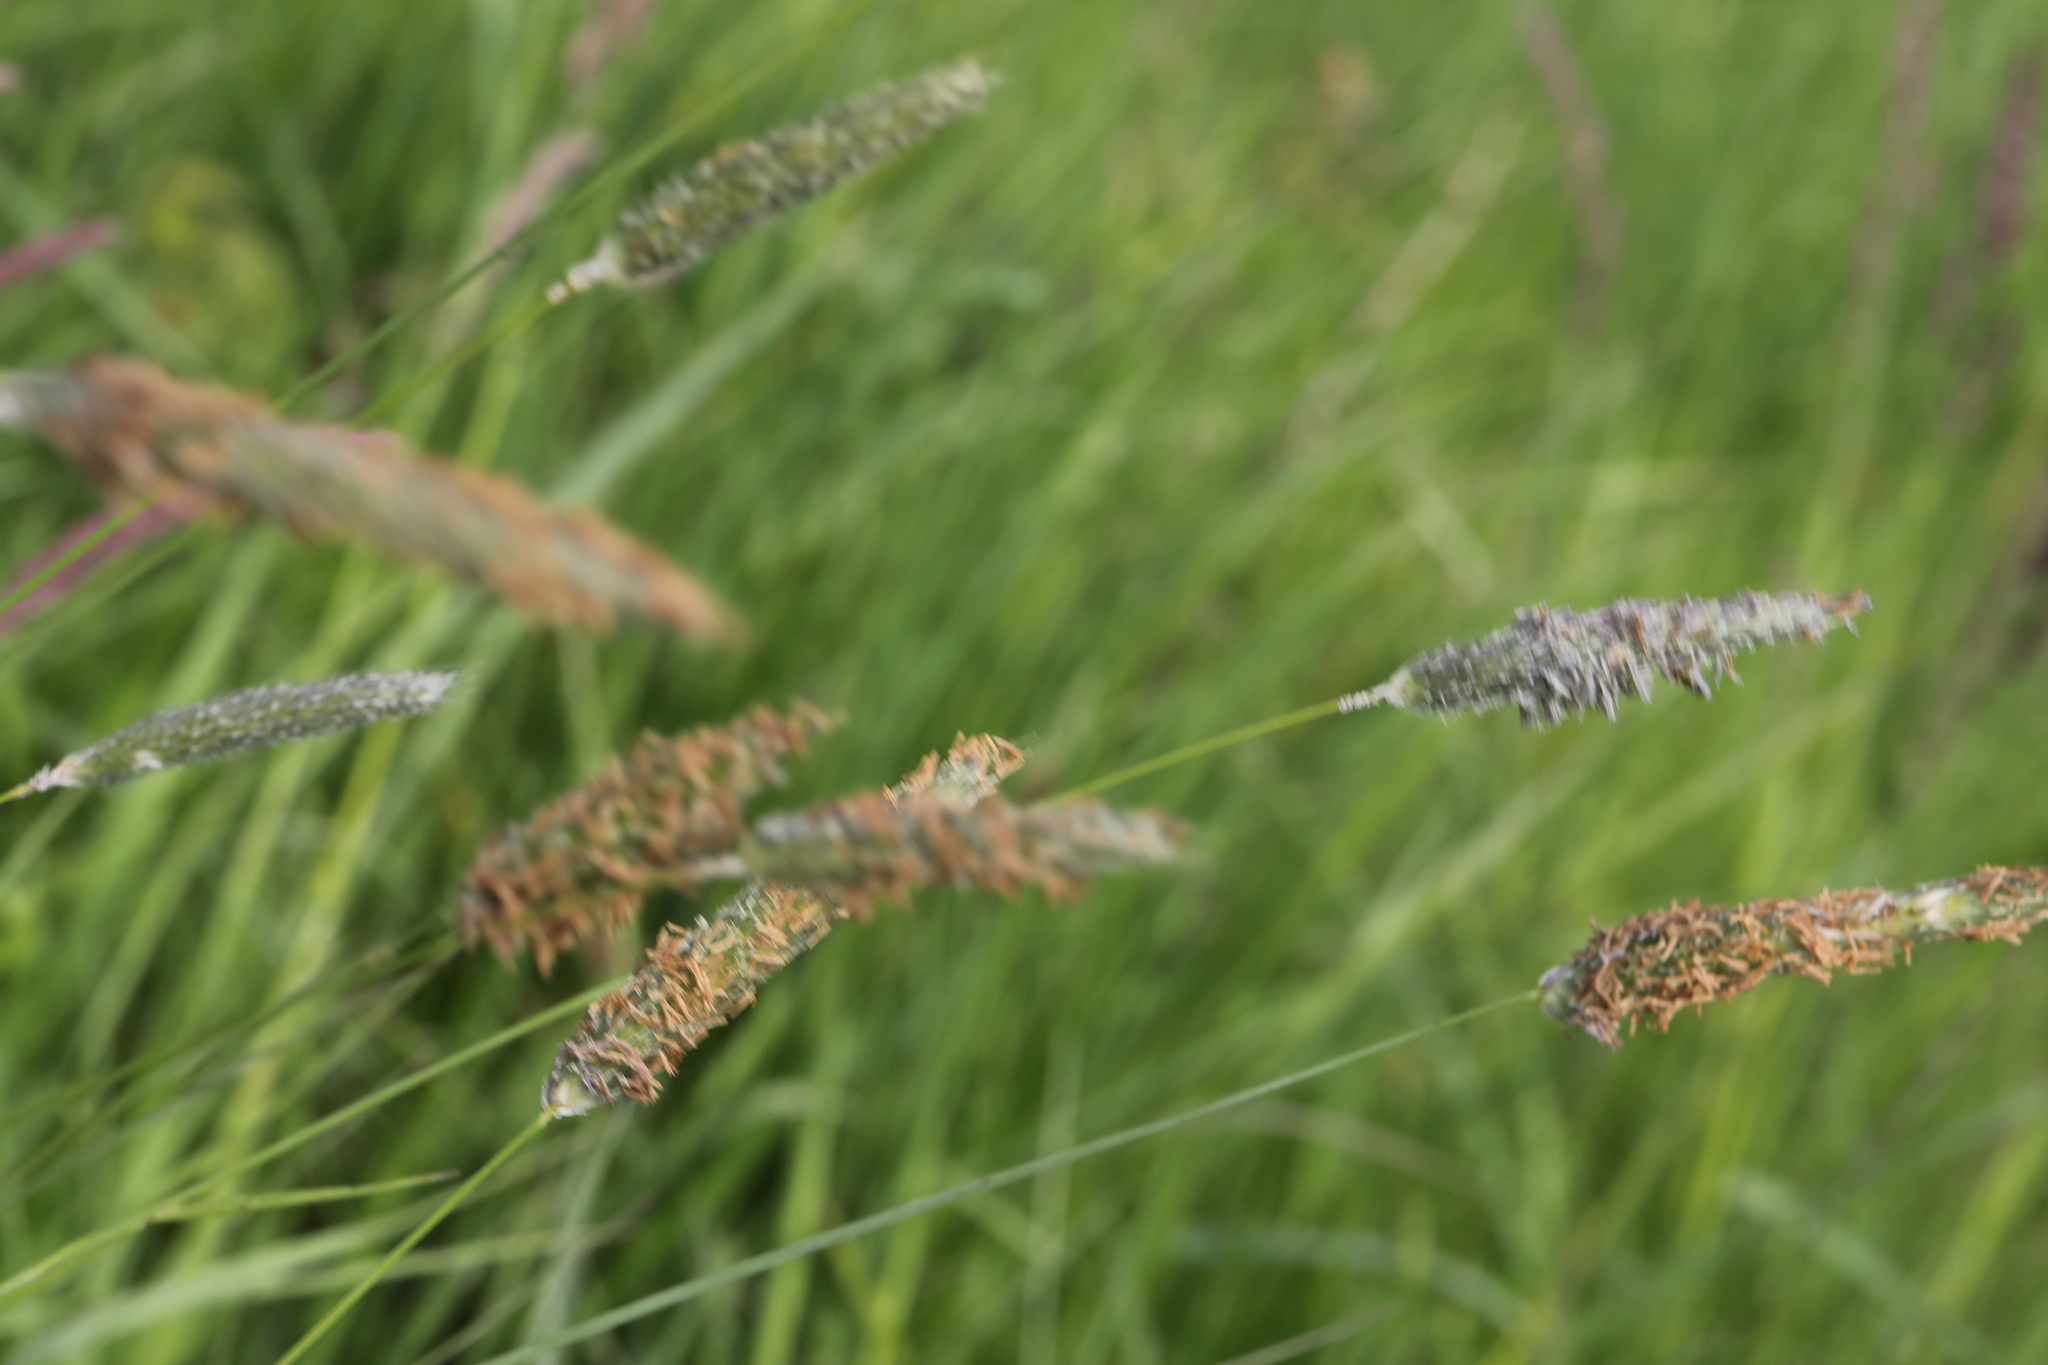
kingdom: Plantae
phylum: Tracheophyta
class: Liliopsida
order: Poales
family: Poaceae
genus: Alopecurus
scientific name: Alopecurus pratensis
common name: Meadow foxtail
